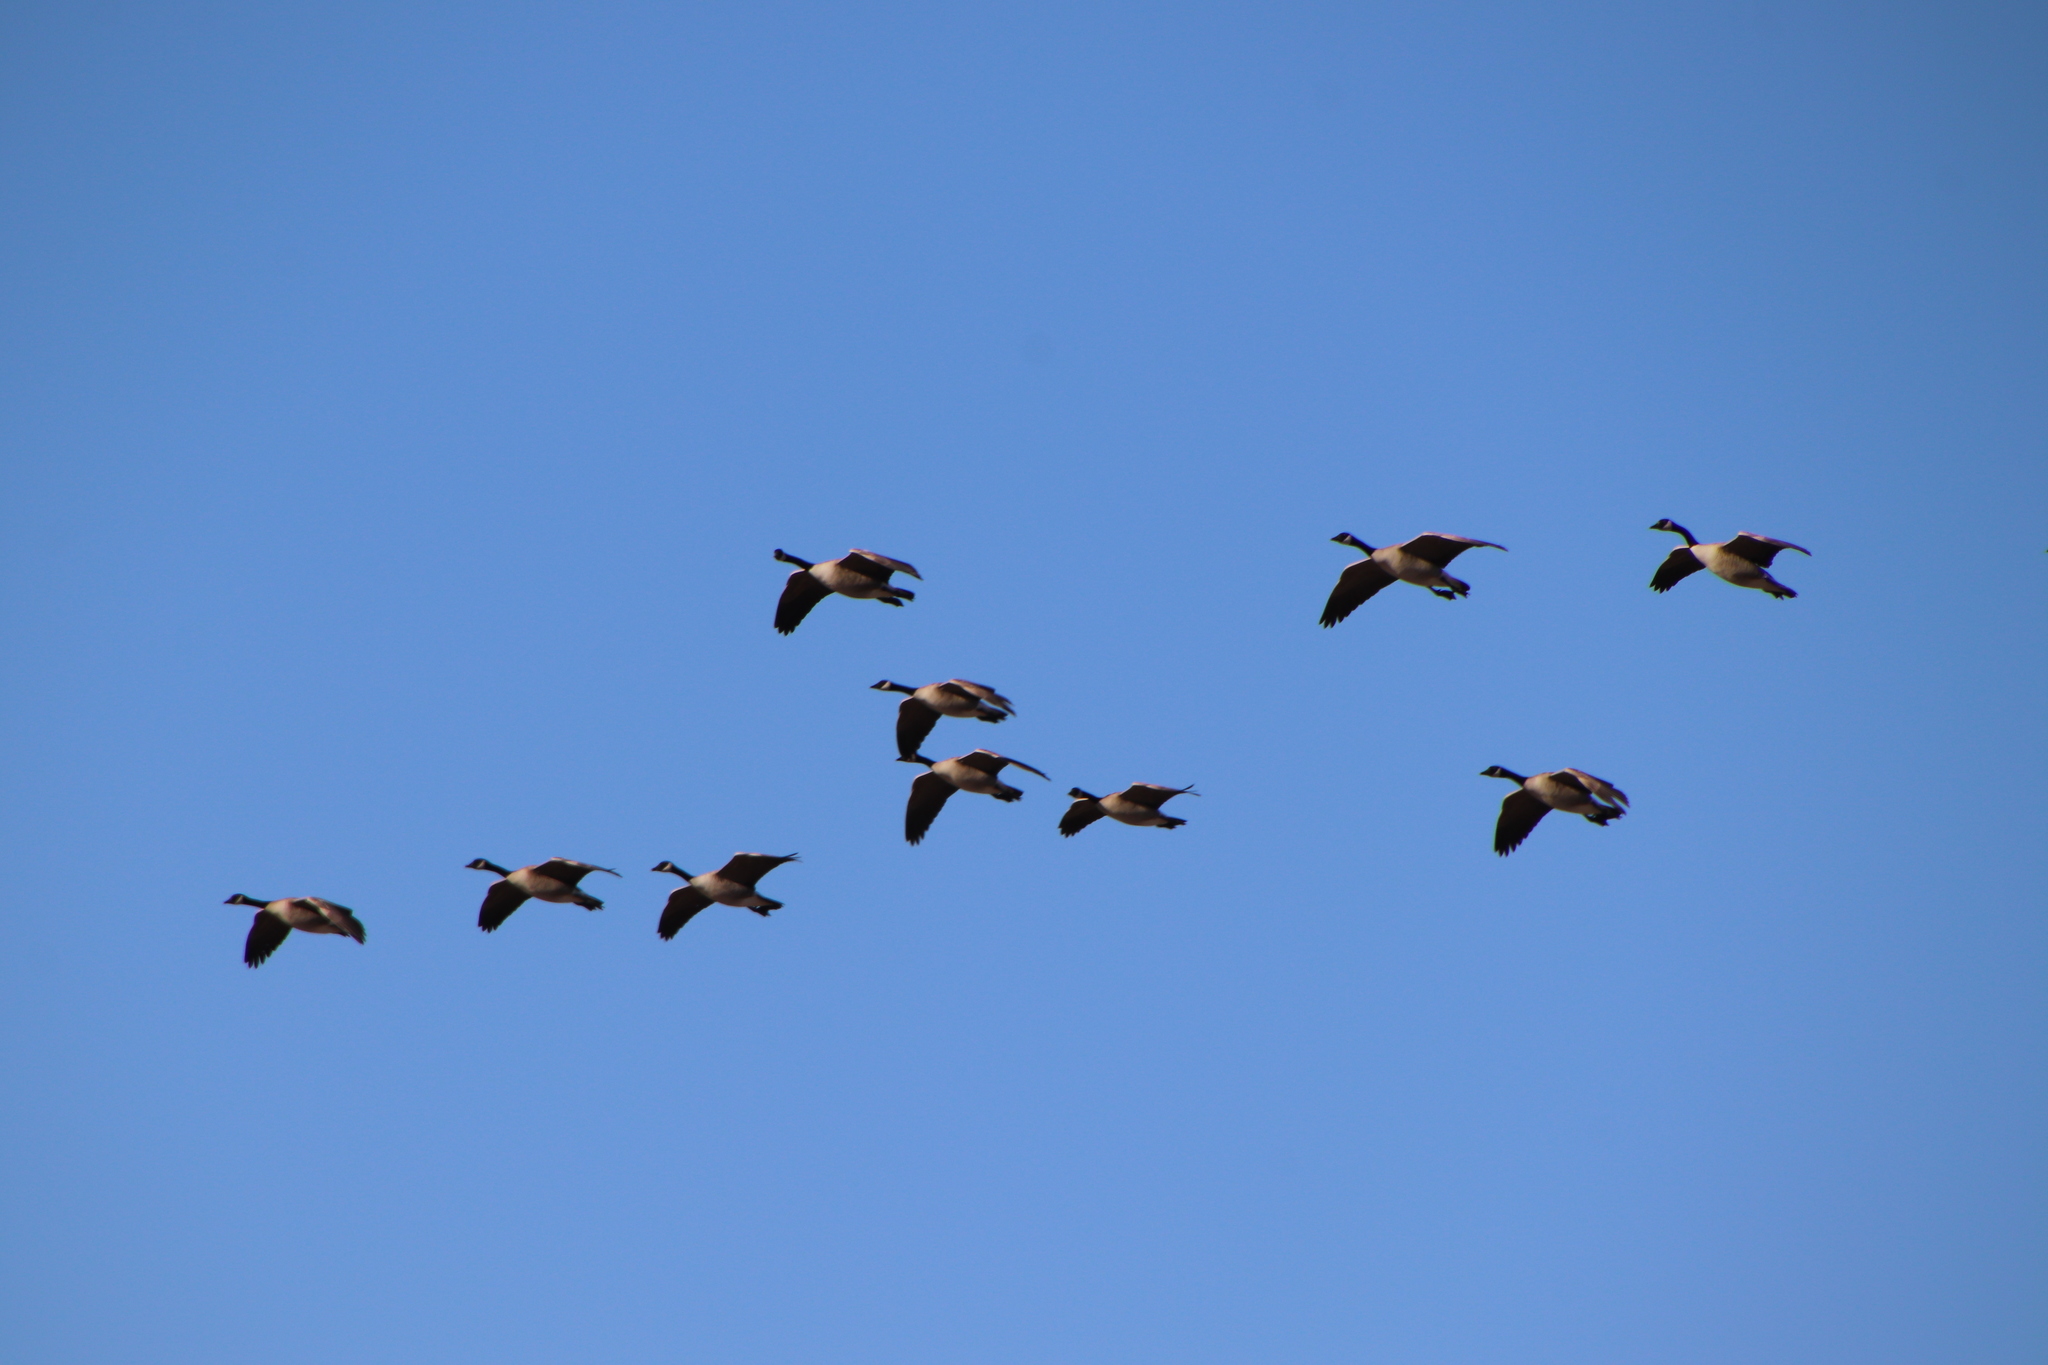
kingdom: Animalia
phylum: Chordata
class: Aves
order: Anseriformes
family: Anatidae
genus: Branta
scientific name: Branta canadensis
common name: Canada goose
